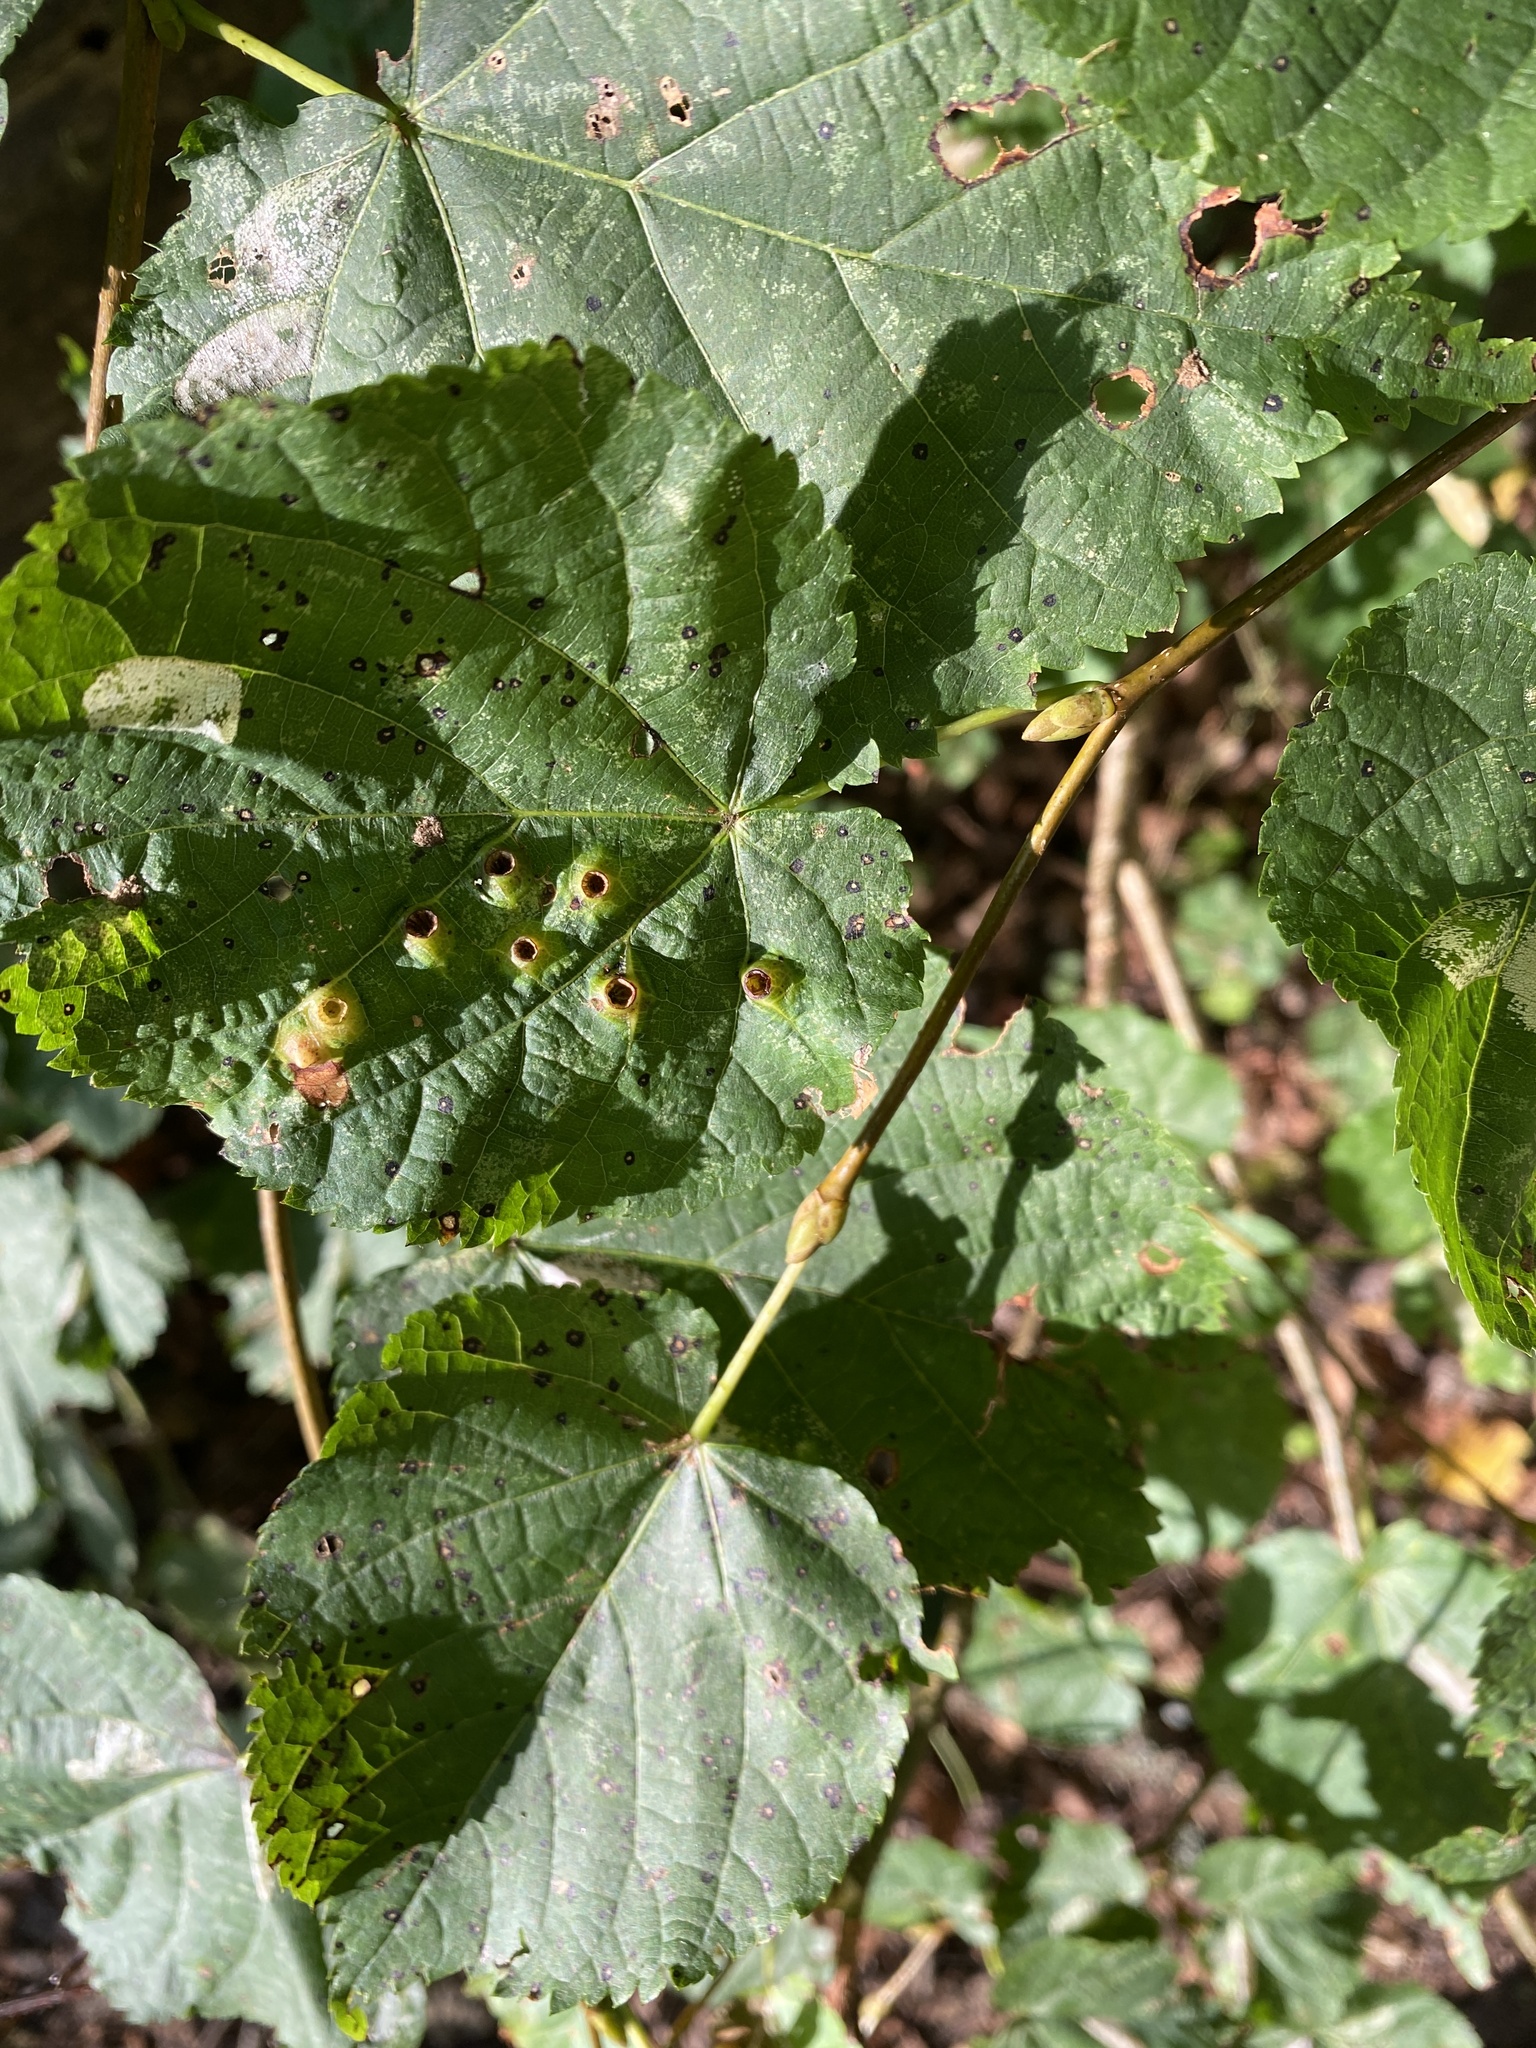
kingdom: Animalia
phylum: Arthropoda
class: Insecta
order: Diptera
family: Cecidomyiidae
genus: Didymomyia
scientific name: Didymomyia tiliacea
